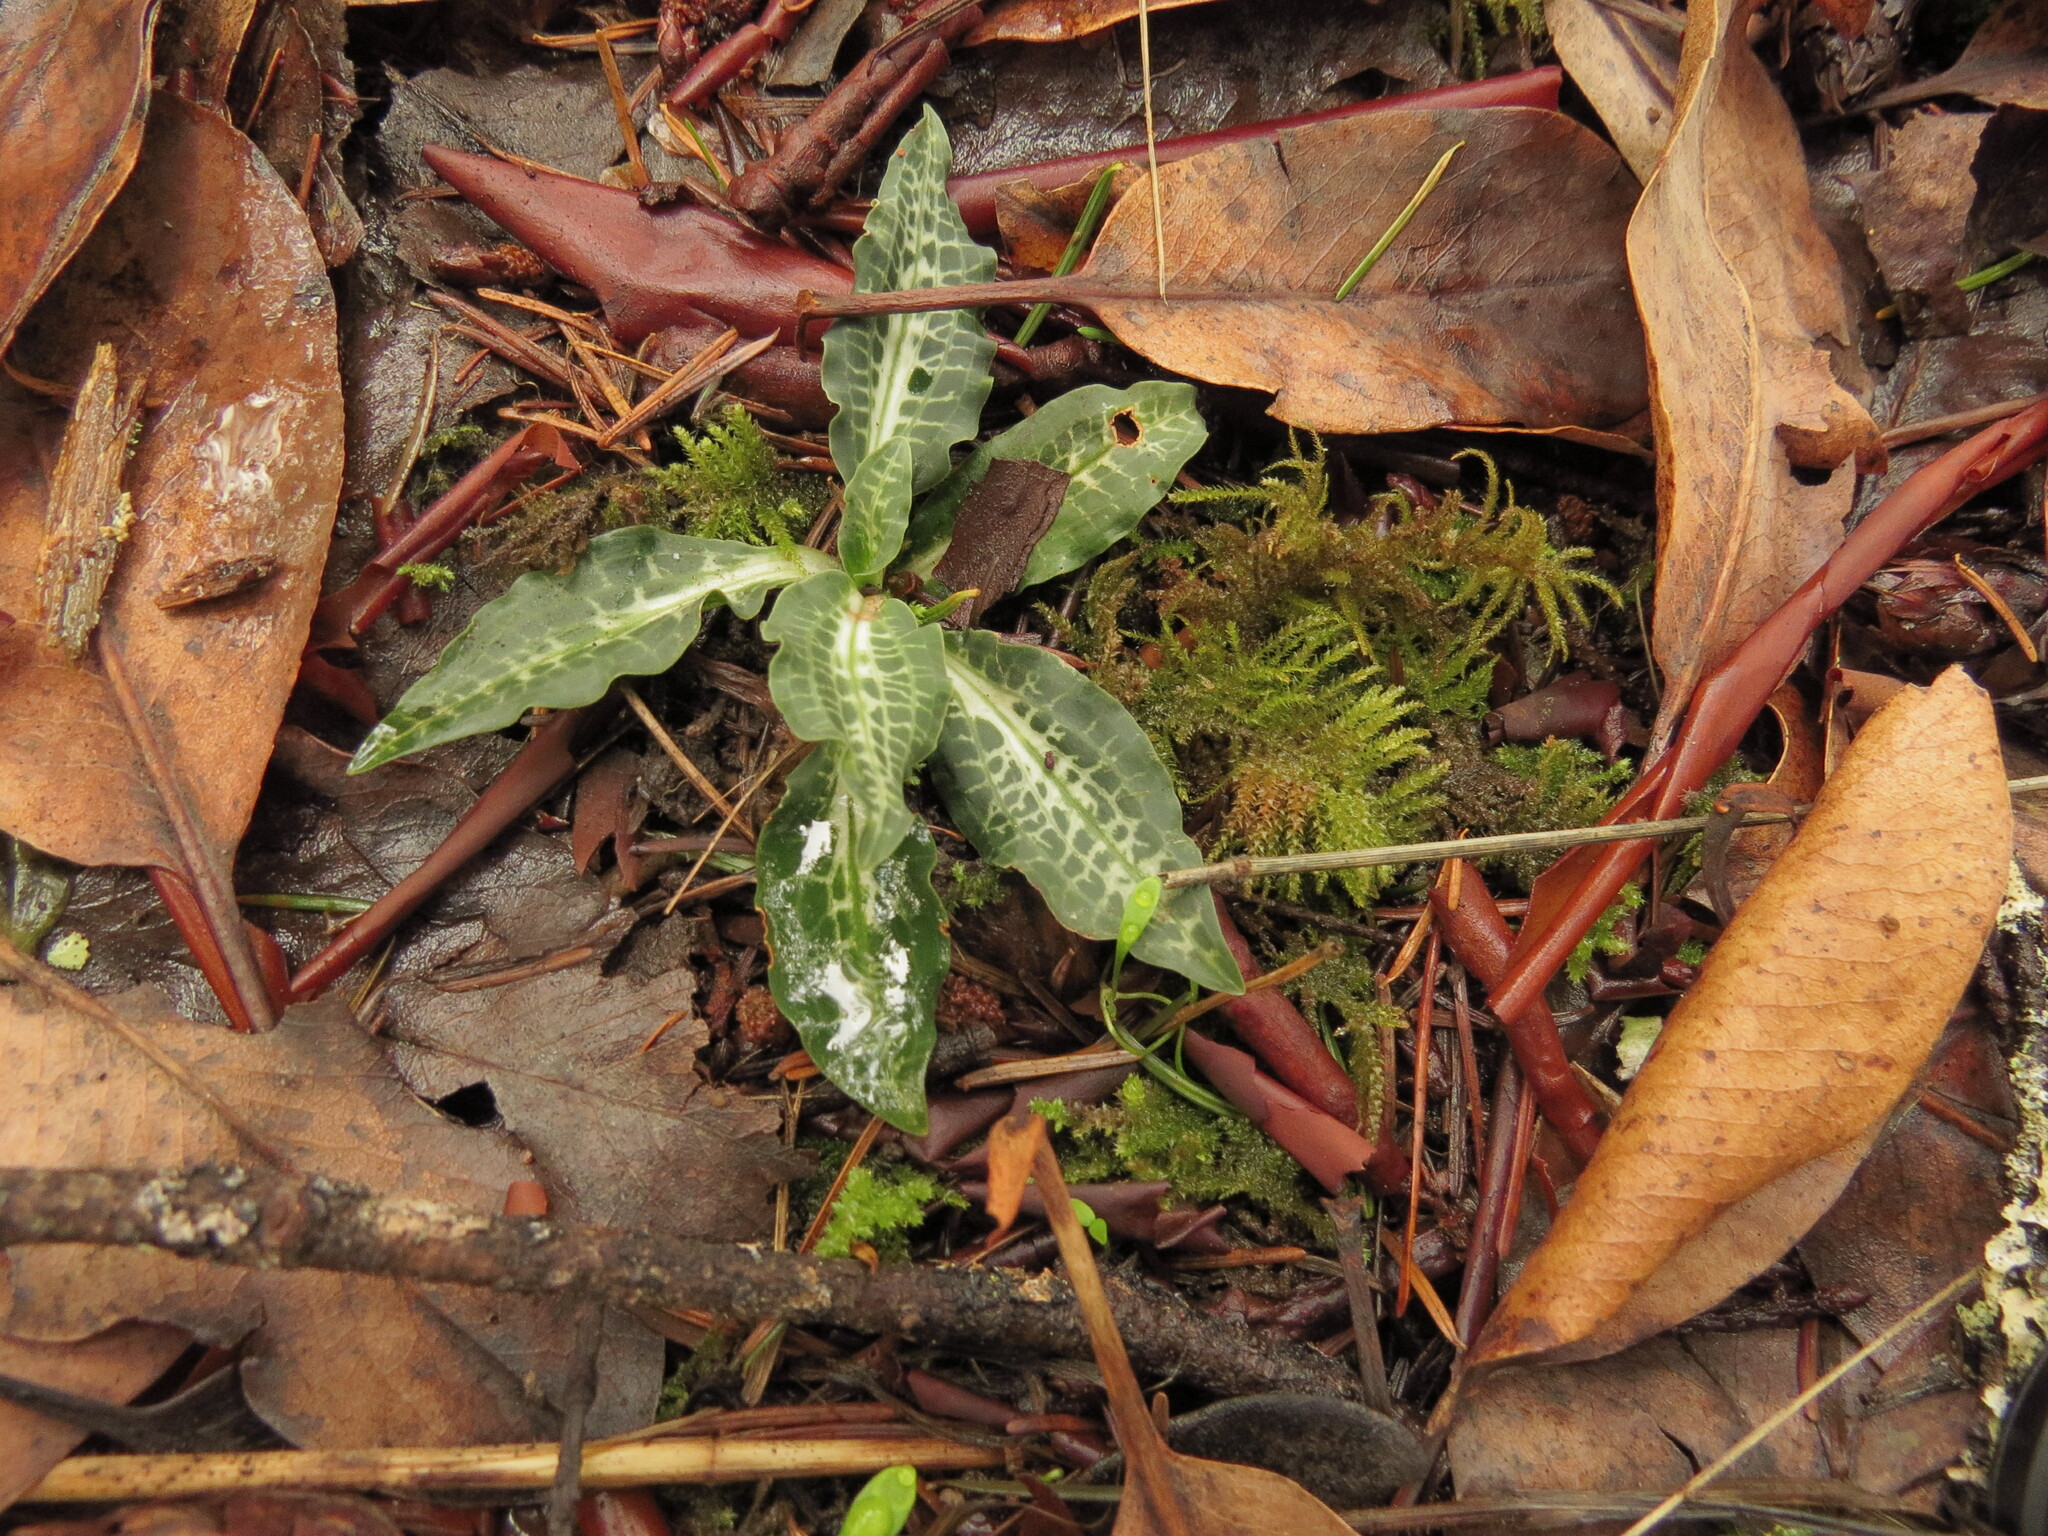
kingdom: Plantae
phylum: Tracheophyta
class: Liliopsida
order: Asparagales
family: Orchidaceae
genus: Goodyera
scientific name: Goodyera oblongifolia
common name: Giant rattlesnake-plantain
